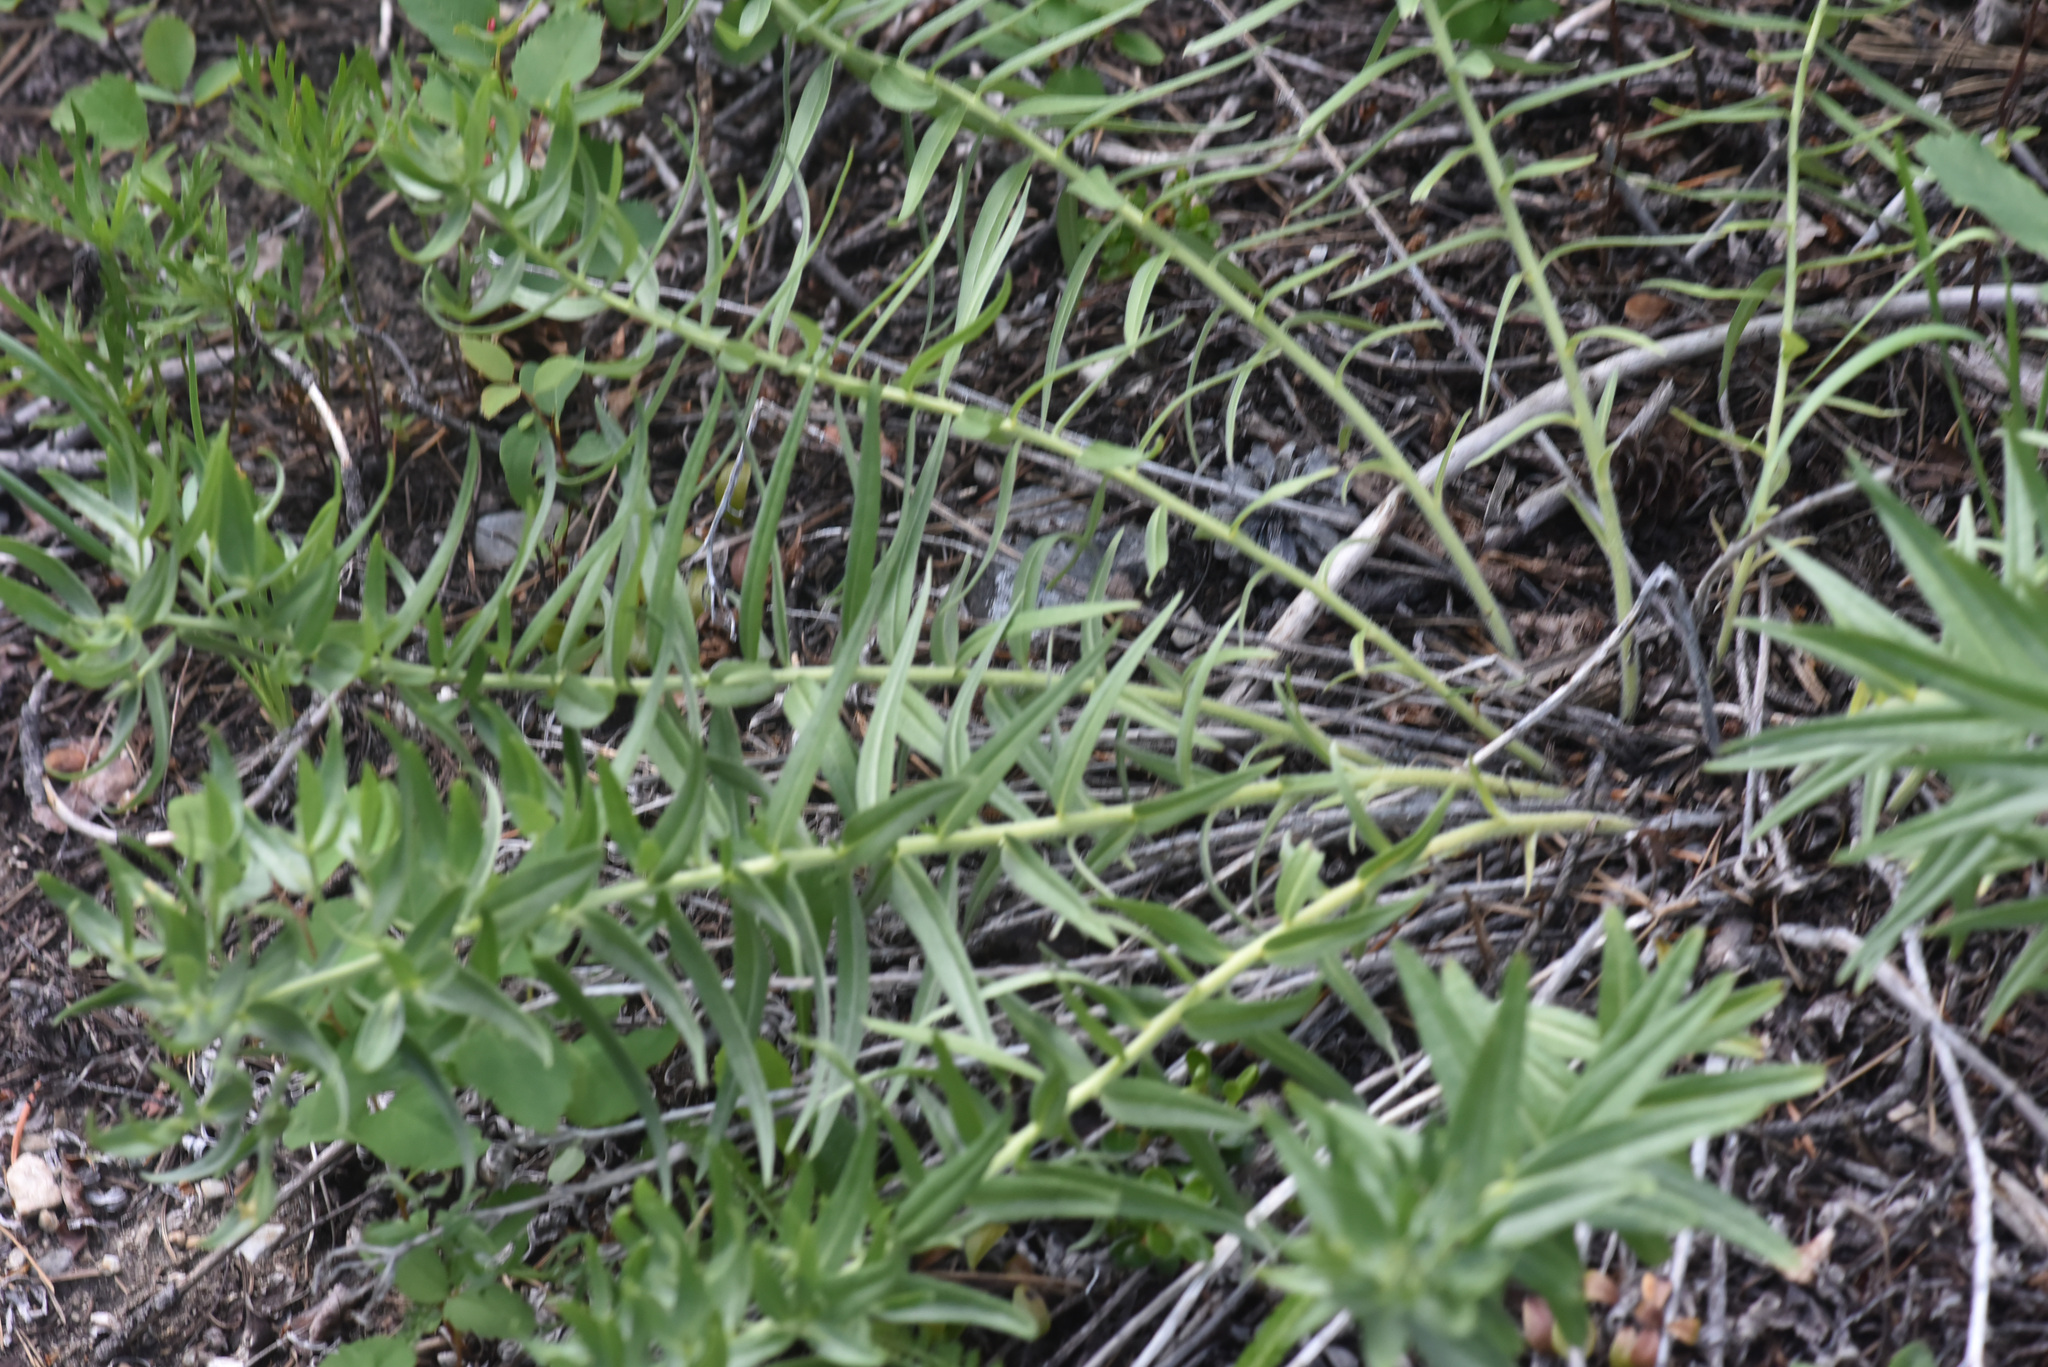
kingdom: Plantae
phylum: Tracheophyta
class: Magnoliopsida
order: Boraginales
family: Boraginaceae
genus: Lithospermum
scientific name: Lithospermum ruderale
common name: Western gromwell
